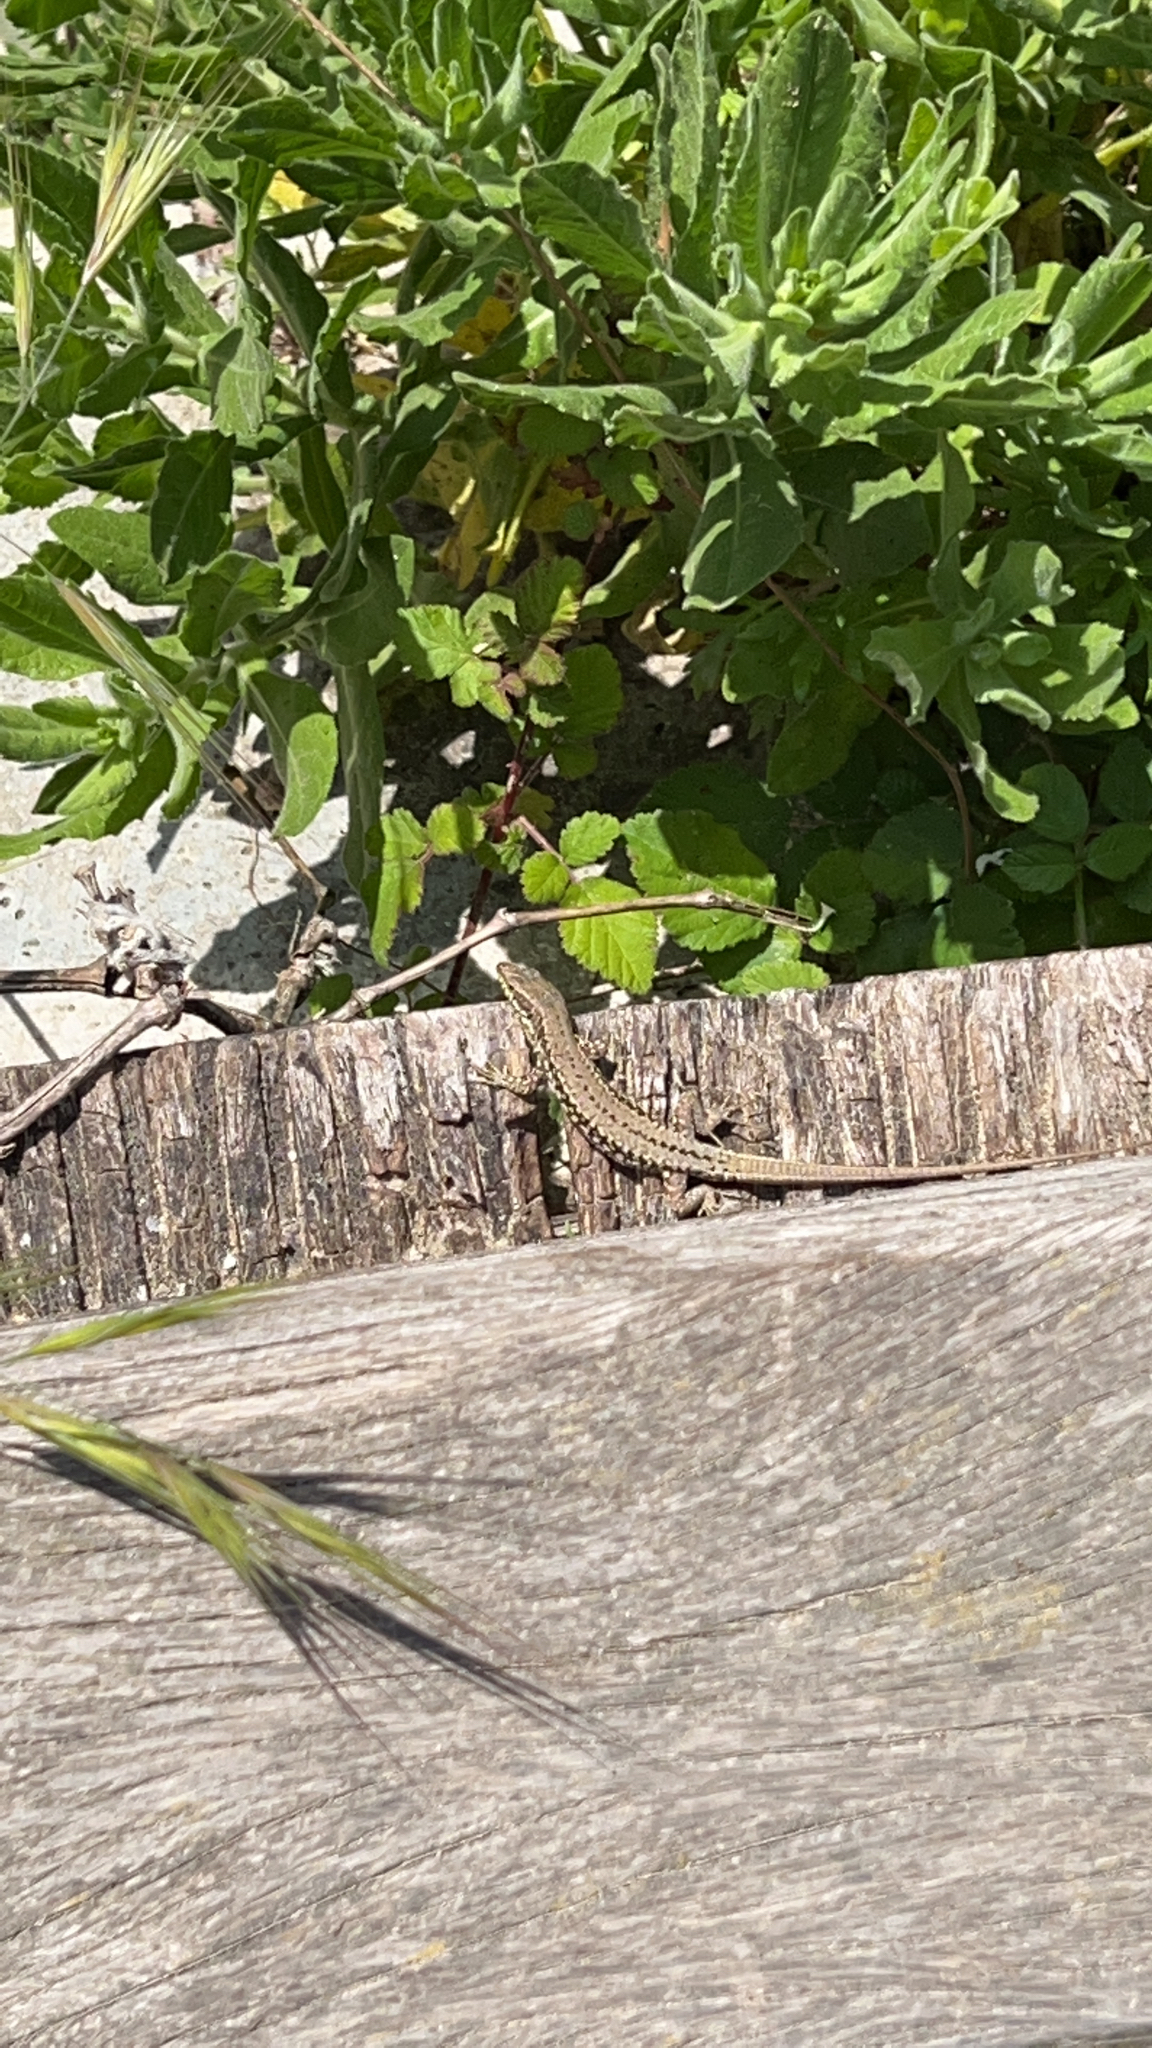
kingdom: Animalia
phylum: Chordata
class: Squamata
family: Lacertidae
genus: Podarcis
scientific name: Podarcis muralis
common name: Common wall lizard
